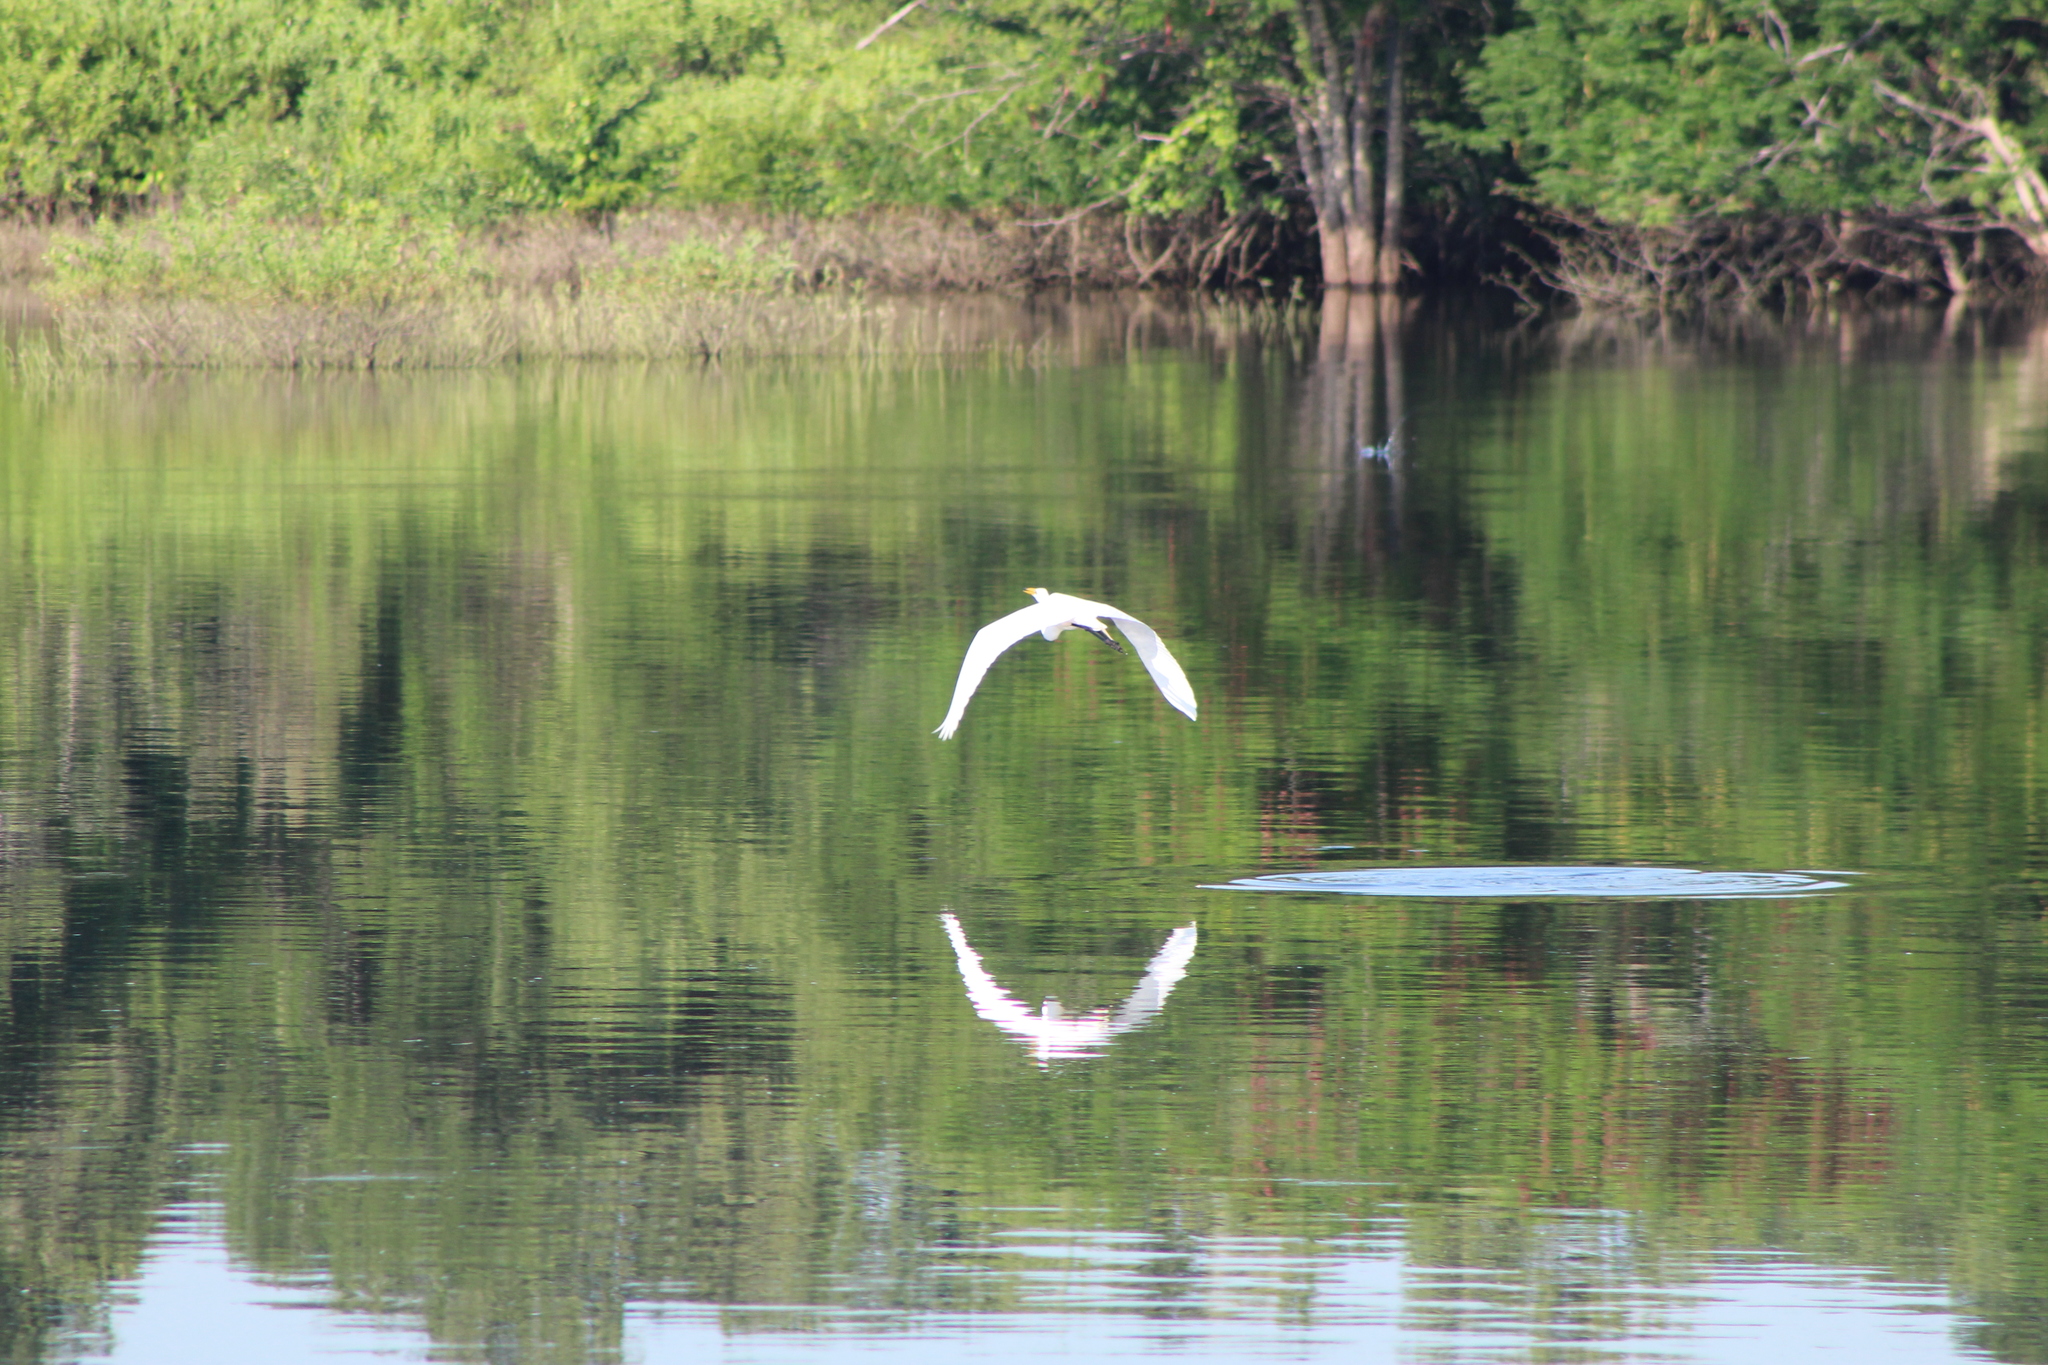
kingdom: Animalia
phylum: Chordata
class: Aves
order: Pelecaniformes
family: Ardeidae
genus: Ardea
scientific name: Ardea alba
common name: Great egret
